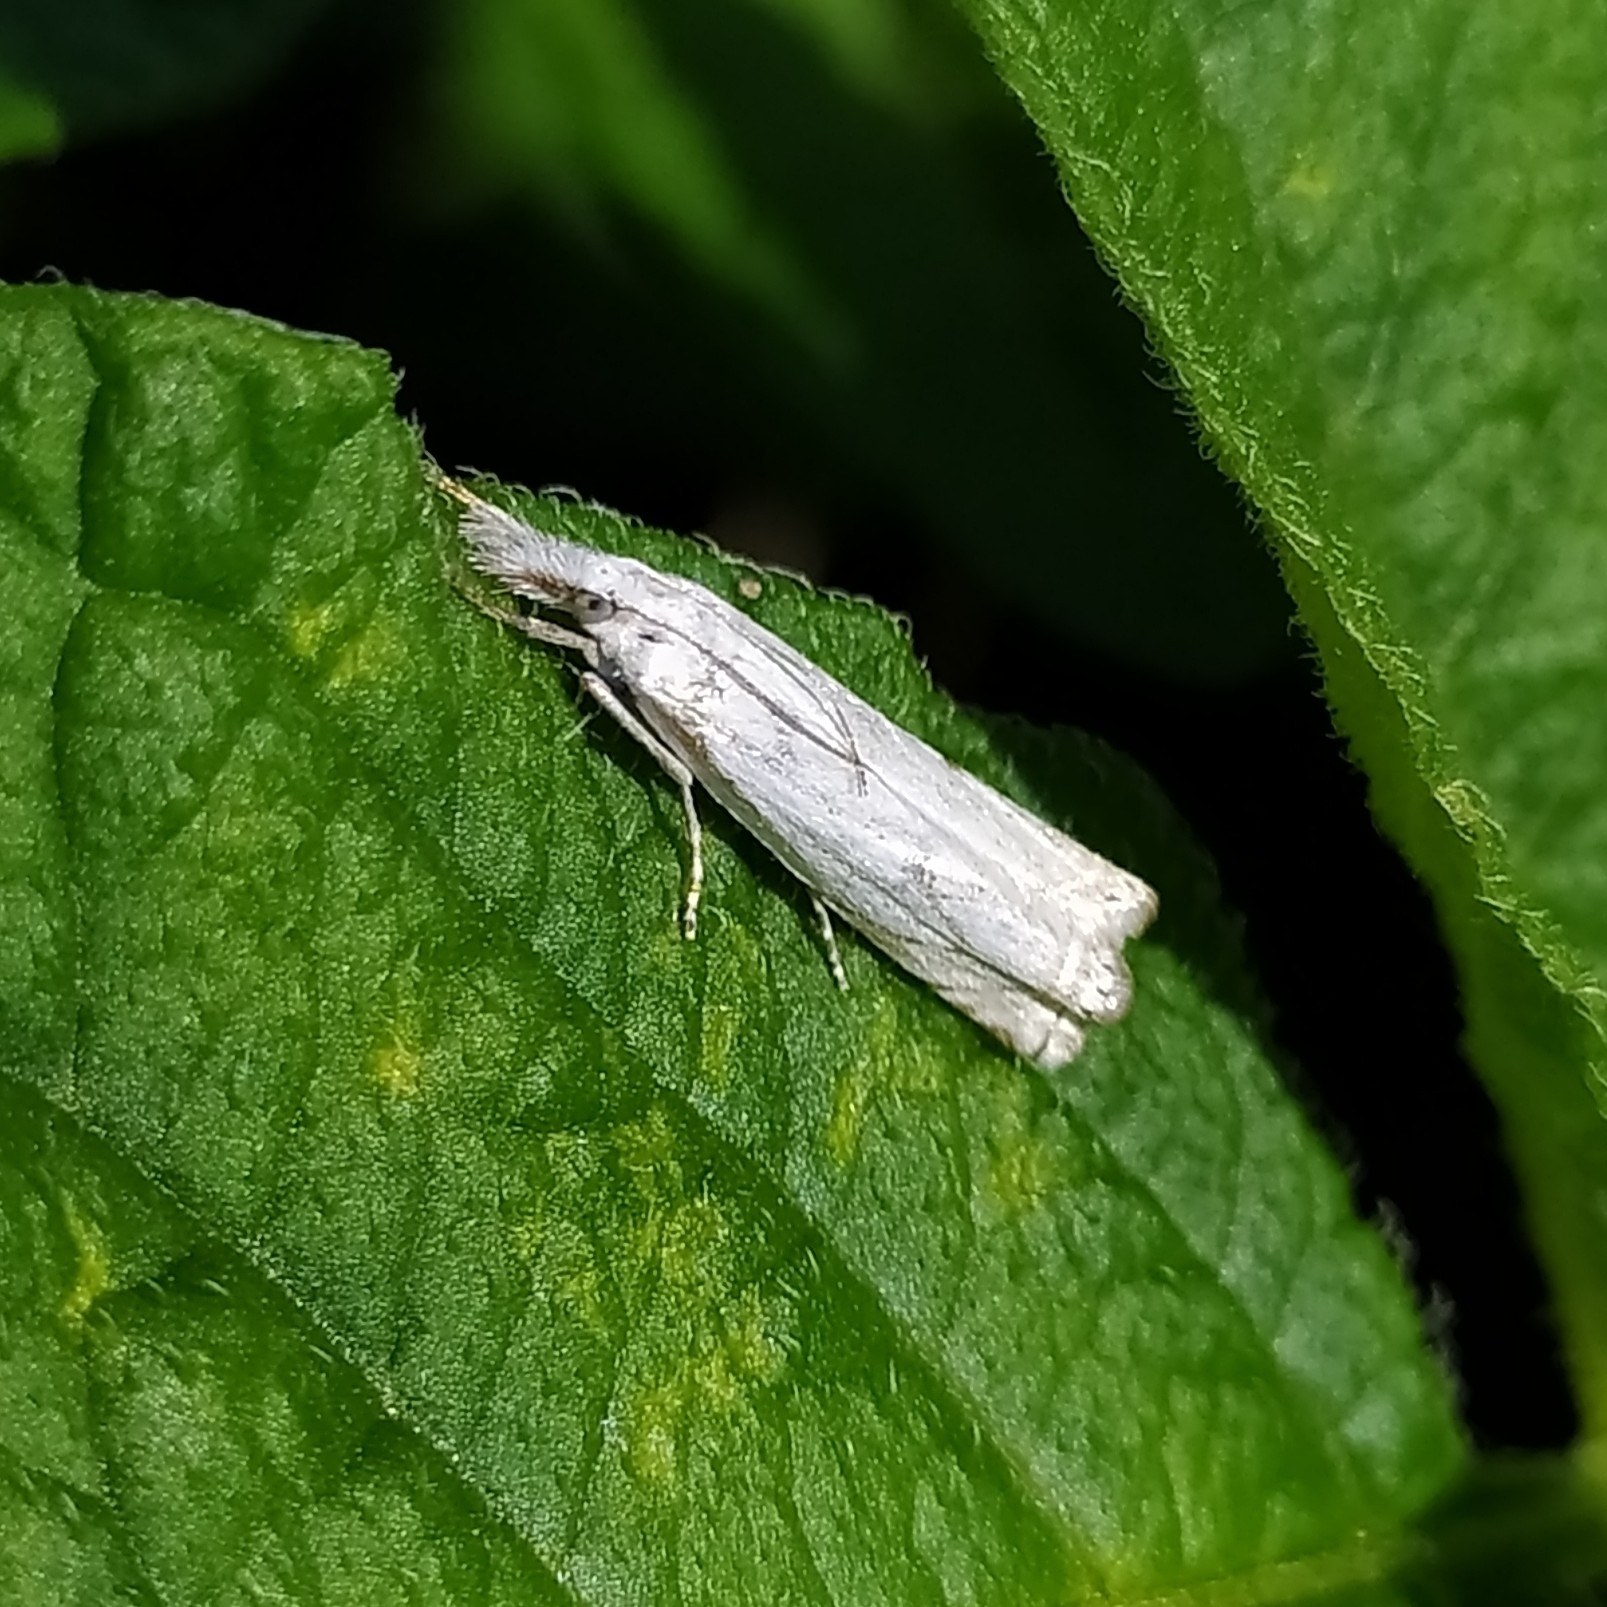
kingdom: Animalia
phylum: Arthropoda
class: Insecta
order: Lepidoptera
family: Crambidae
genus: Crambus
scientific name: Crambus nemorella
